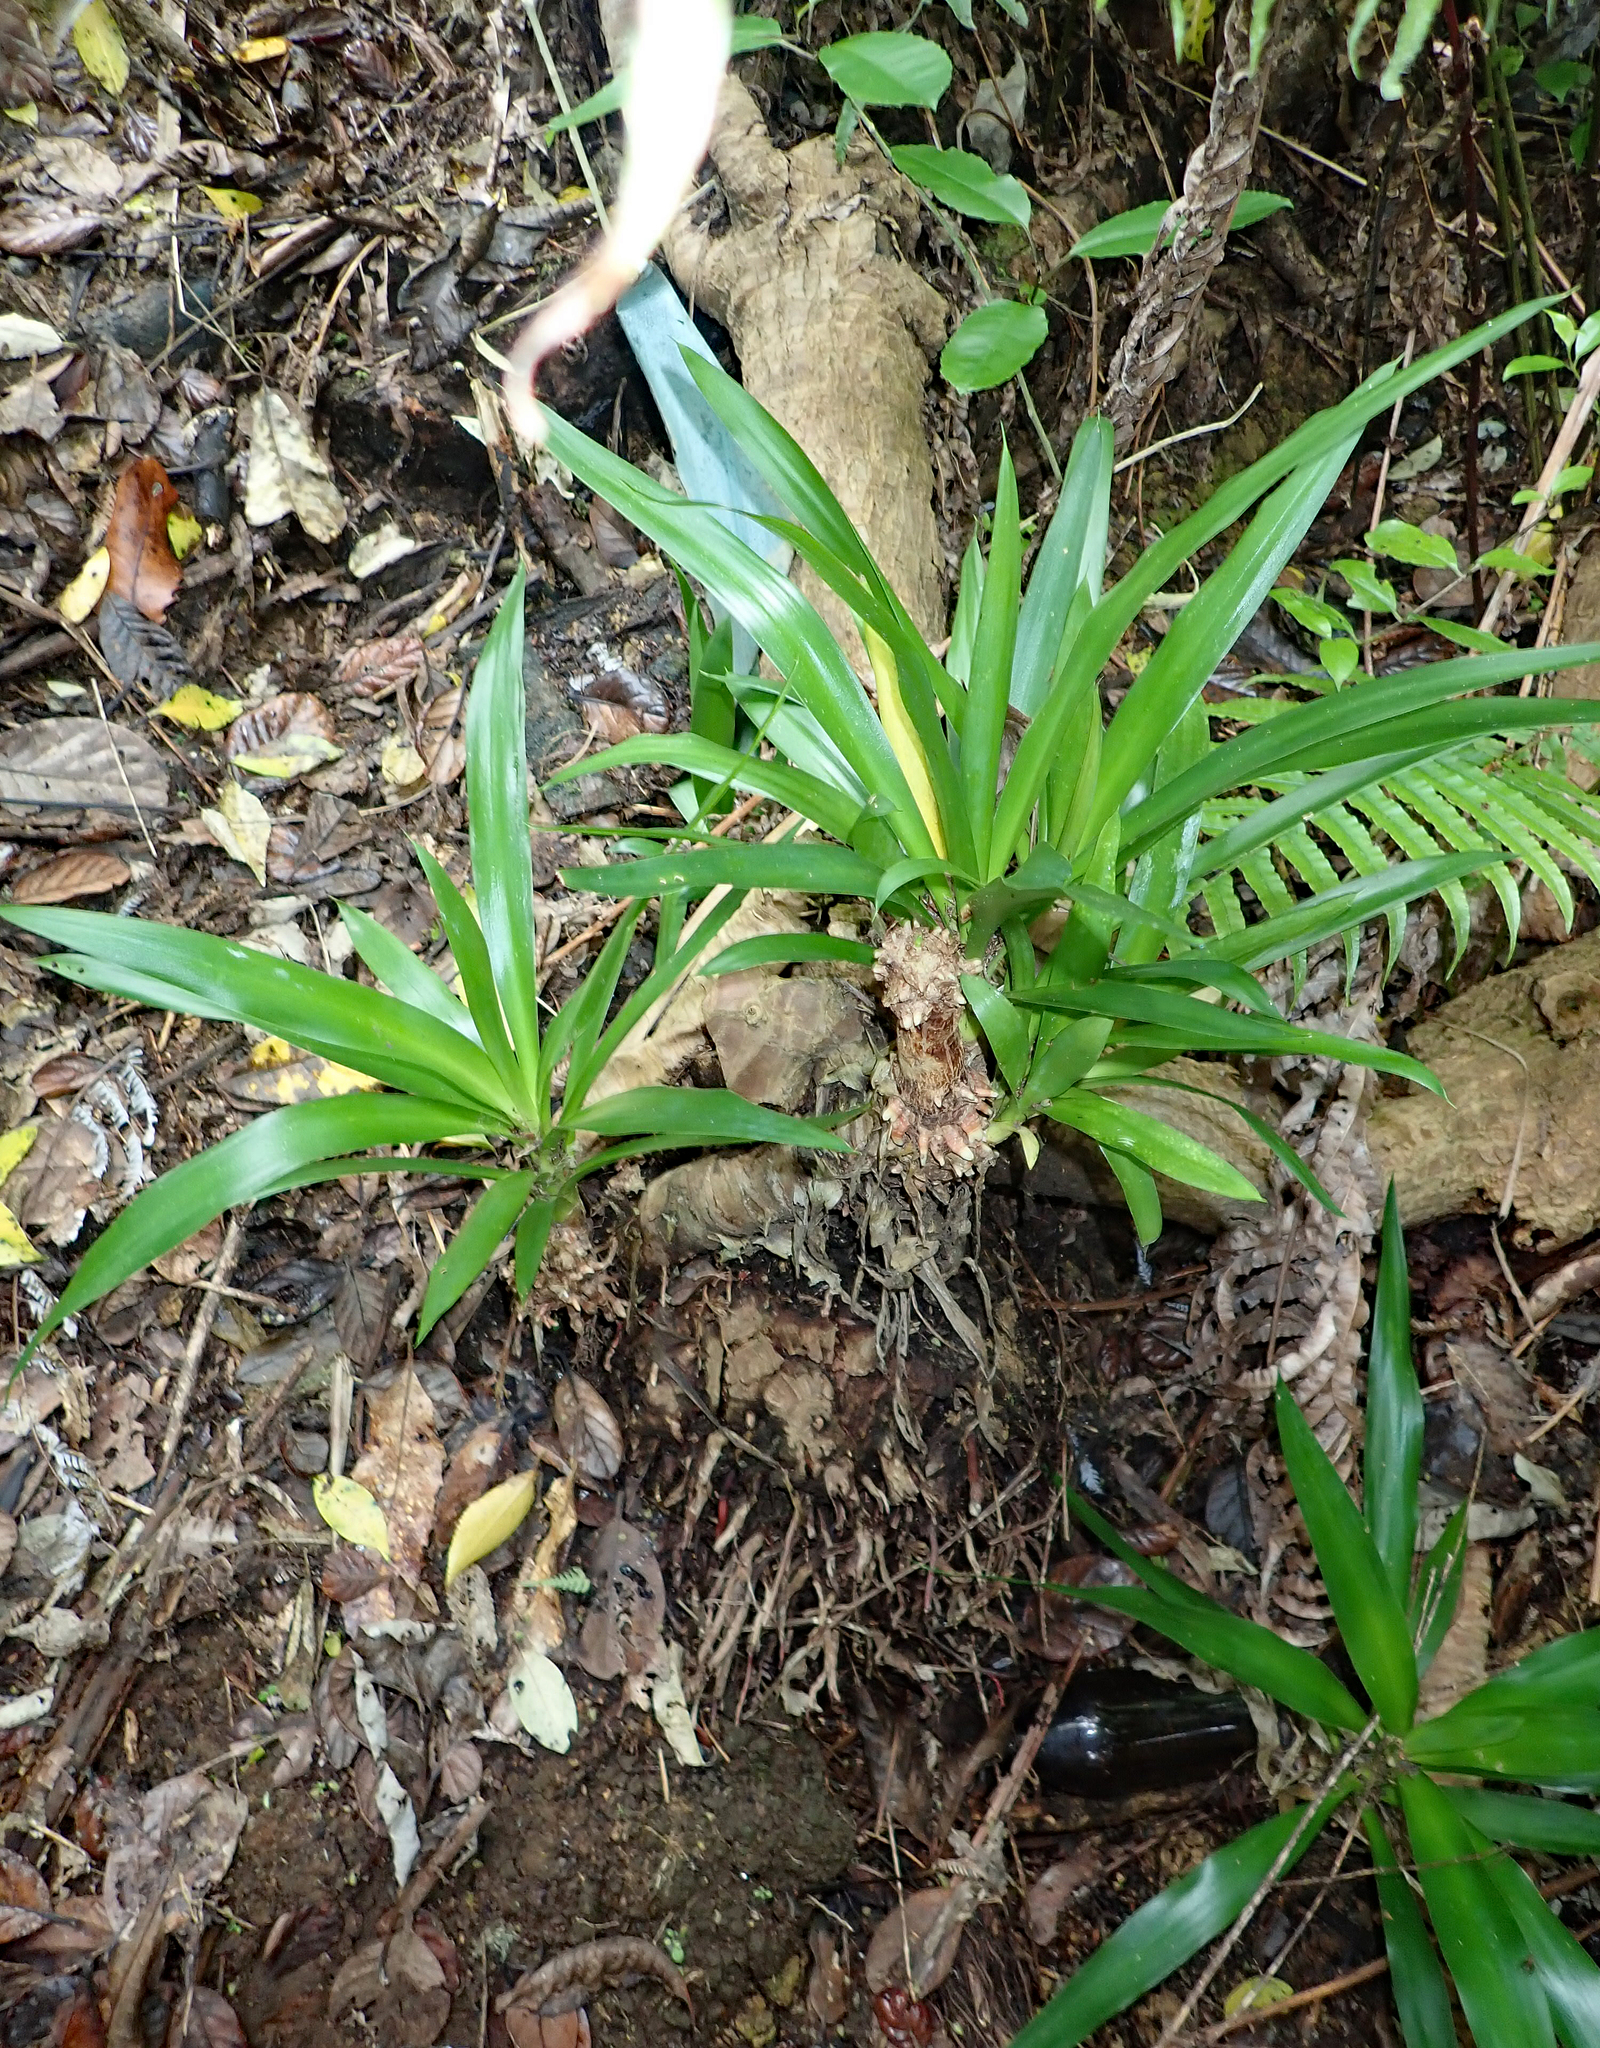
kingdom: Plantae
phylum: Tracheophyta
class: Liliopsida
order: Asparagales
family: Asparagaceae
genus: Yucca
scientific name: Yucca gigantea
